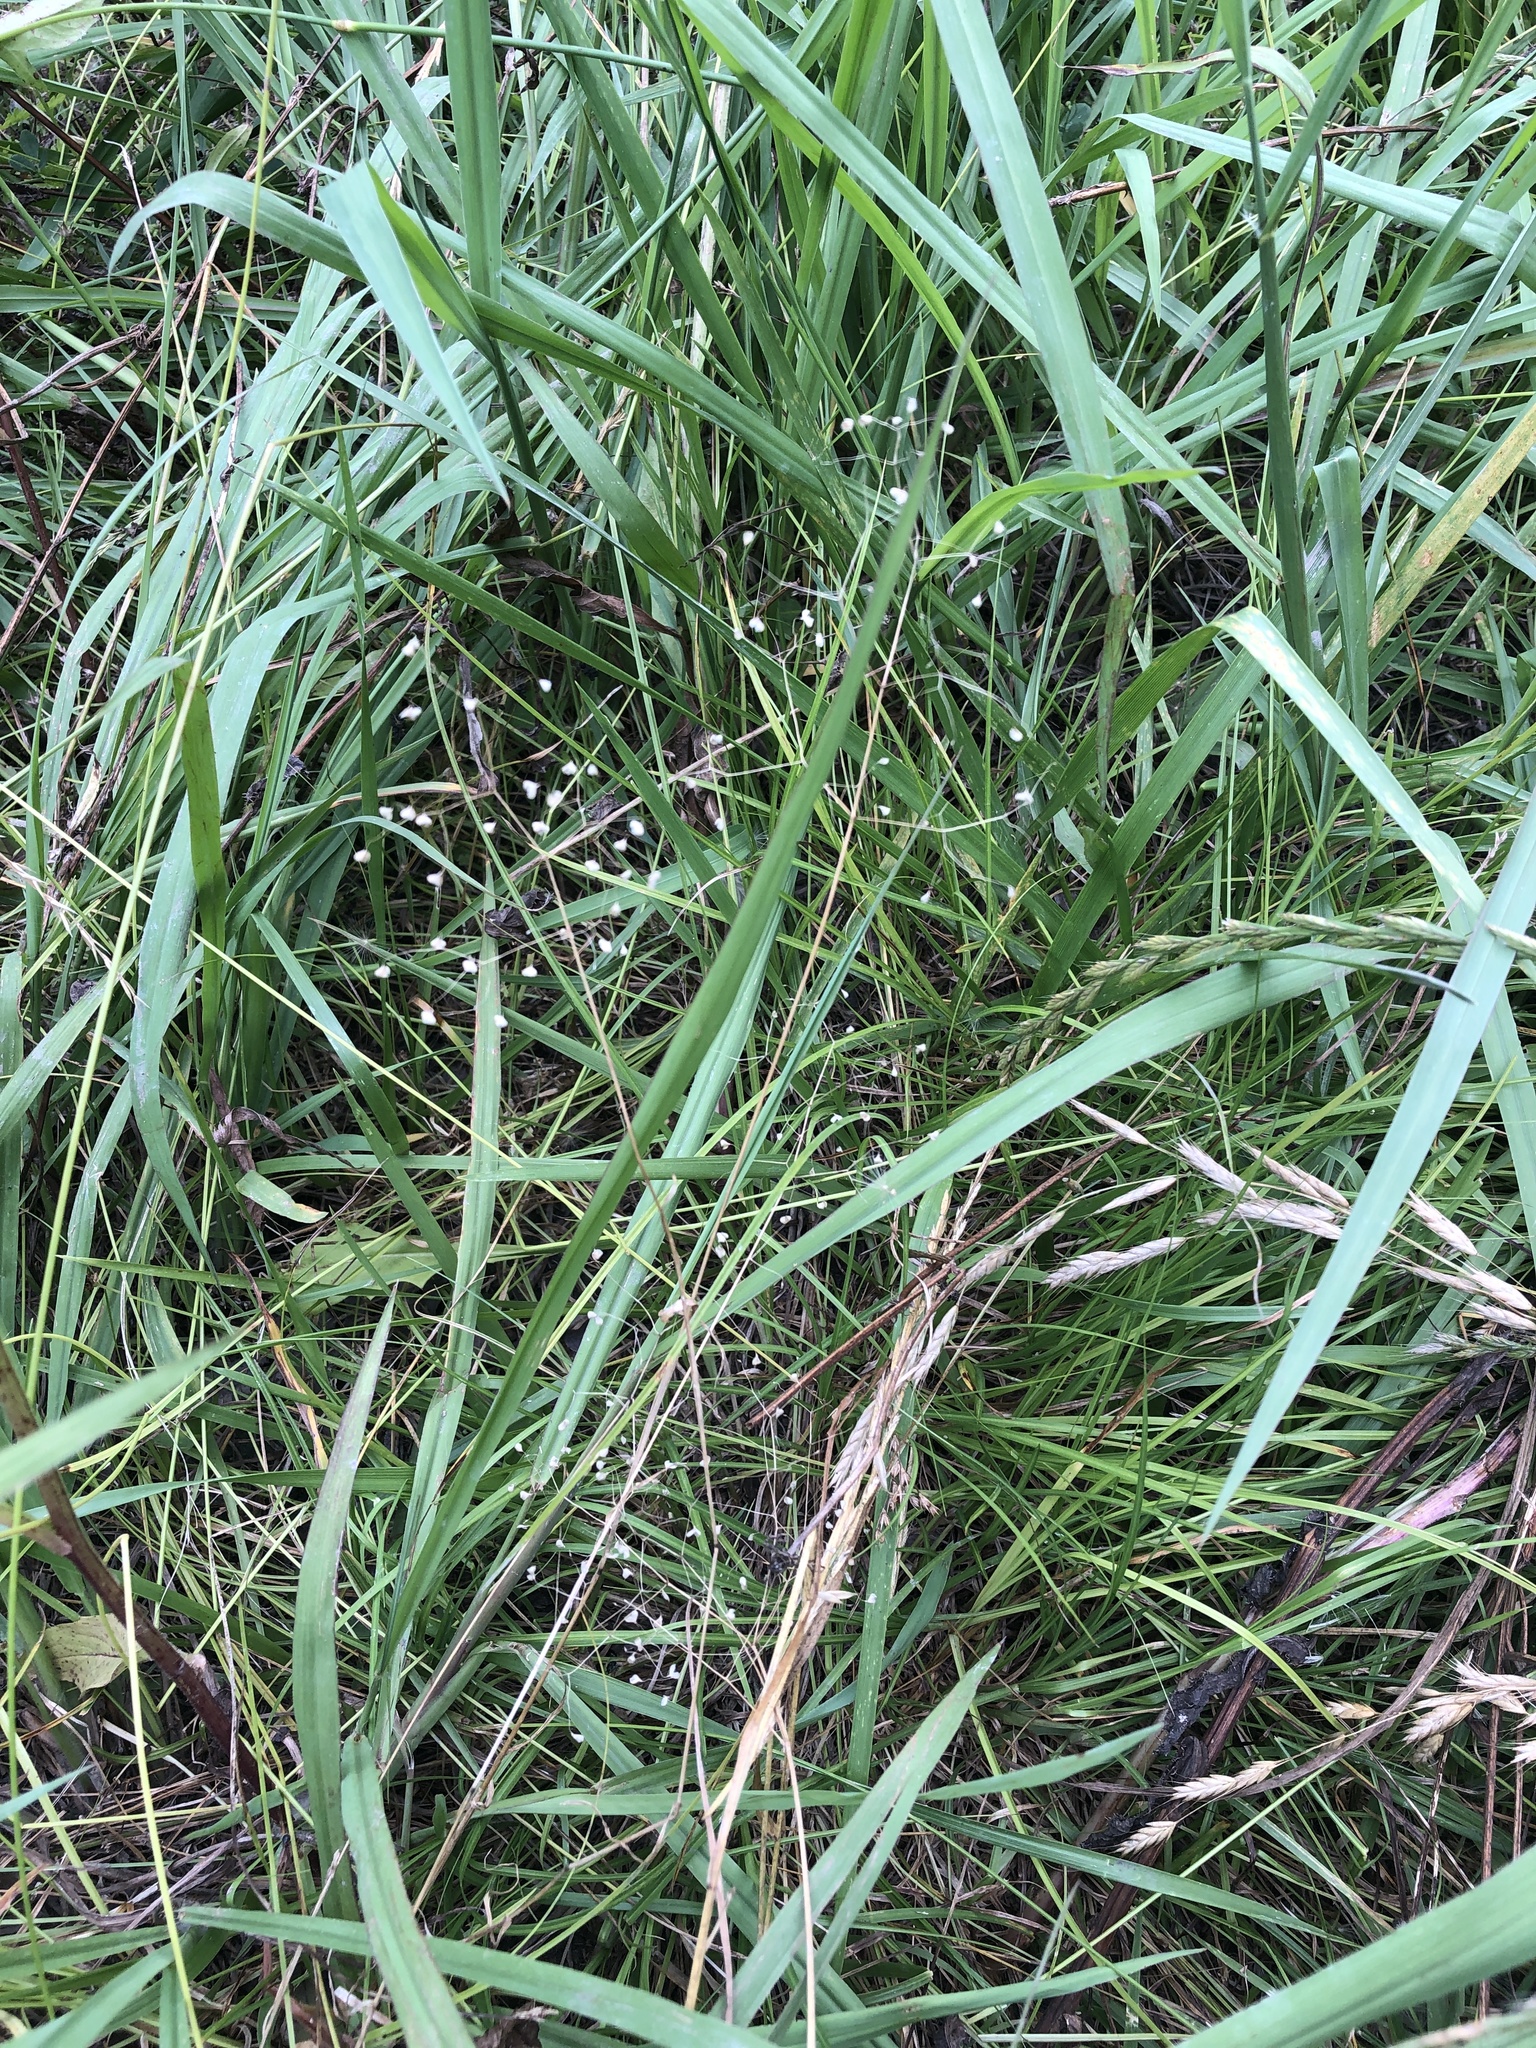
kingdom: Plantae
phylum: Tracheophyta
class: Liliopsida
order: Poales
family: Poaceae
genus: Briza
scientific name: Briza minor
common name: Lesser quaking-grass
